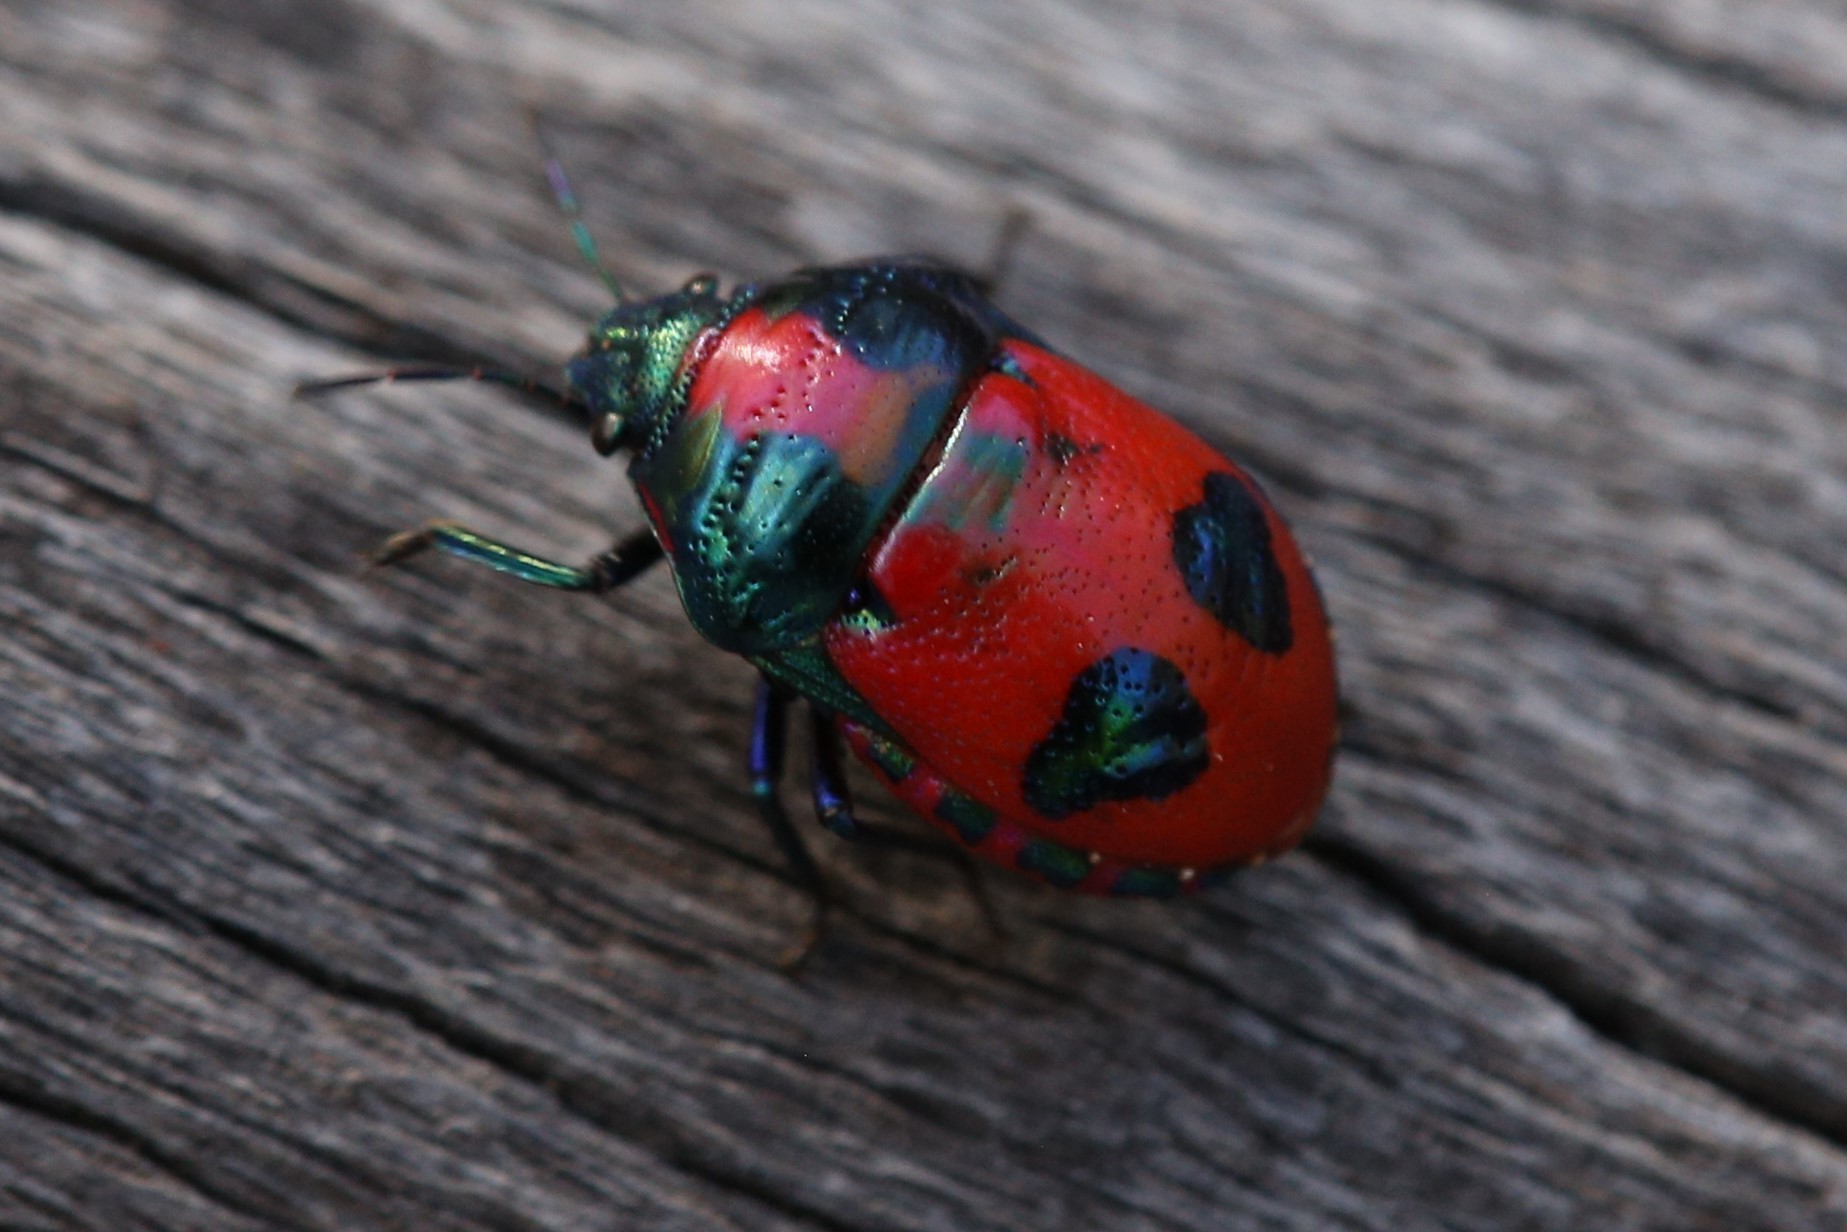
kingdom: Animalia
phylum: Arthropoda
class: Insecta
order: Hemiptera
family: Scutelleridae
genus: Choerocoris
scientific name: Choerocoris paganus
